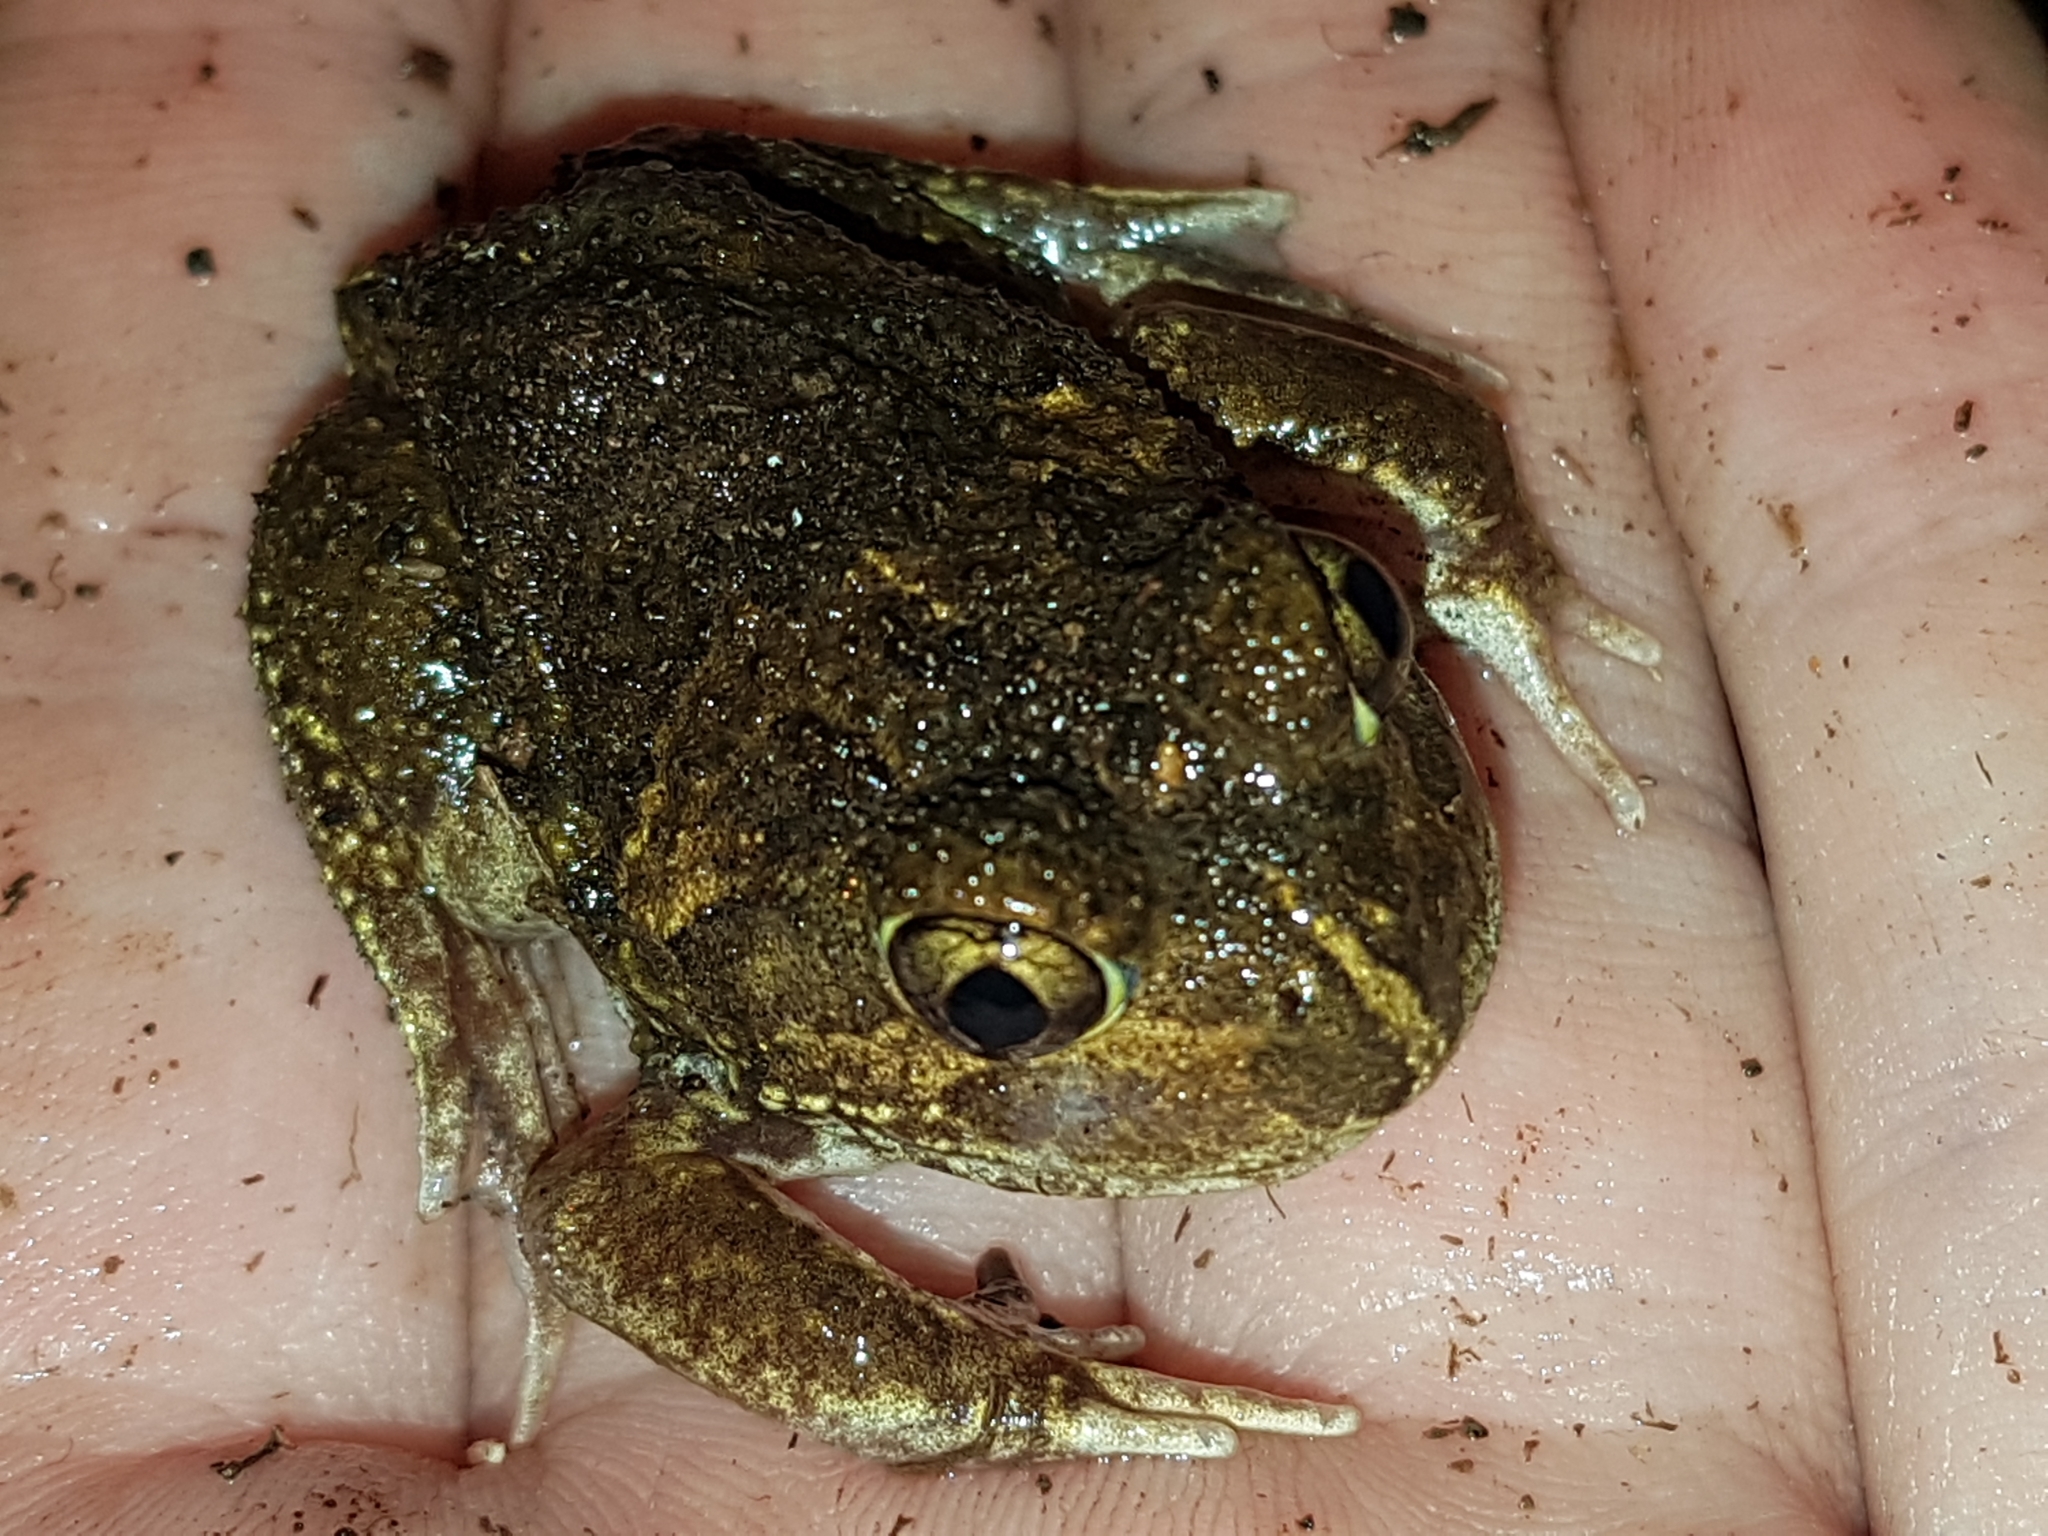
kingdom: Animalia
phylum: Chordata
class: Amphibia
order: Anura
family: Limnodynastidae
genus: Neobatrachus
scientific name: Neobatrachus sudelli
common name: Common spadefoot toad
